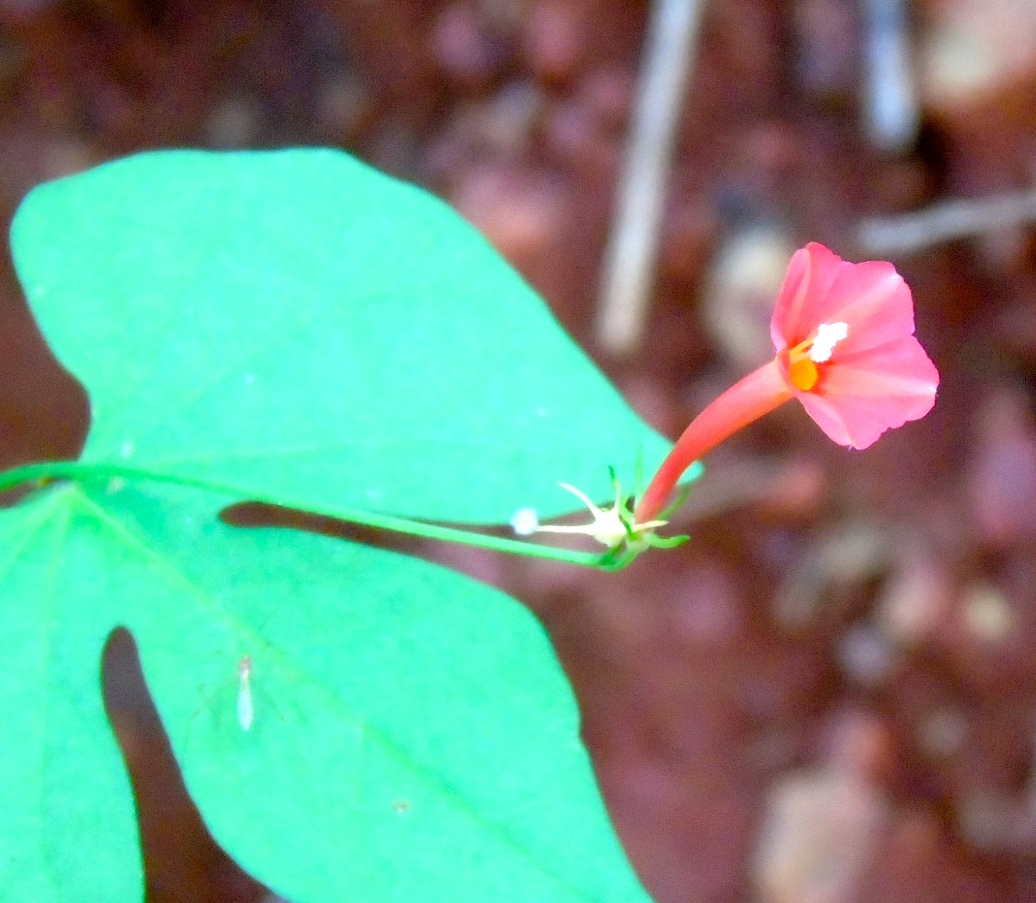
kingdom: Plantae
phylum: Tracheophyta
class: Magnoliopsida
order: Solanales
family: Convolvulaceae
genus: Ipomoea
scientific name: Ipomoea hederifolia
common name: Ivy-leaf morning-glory
